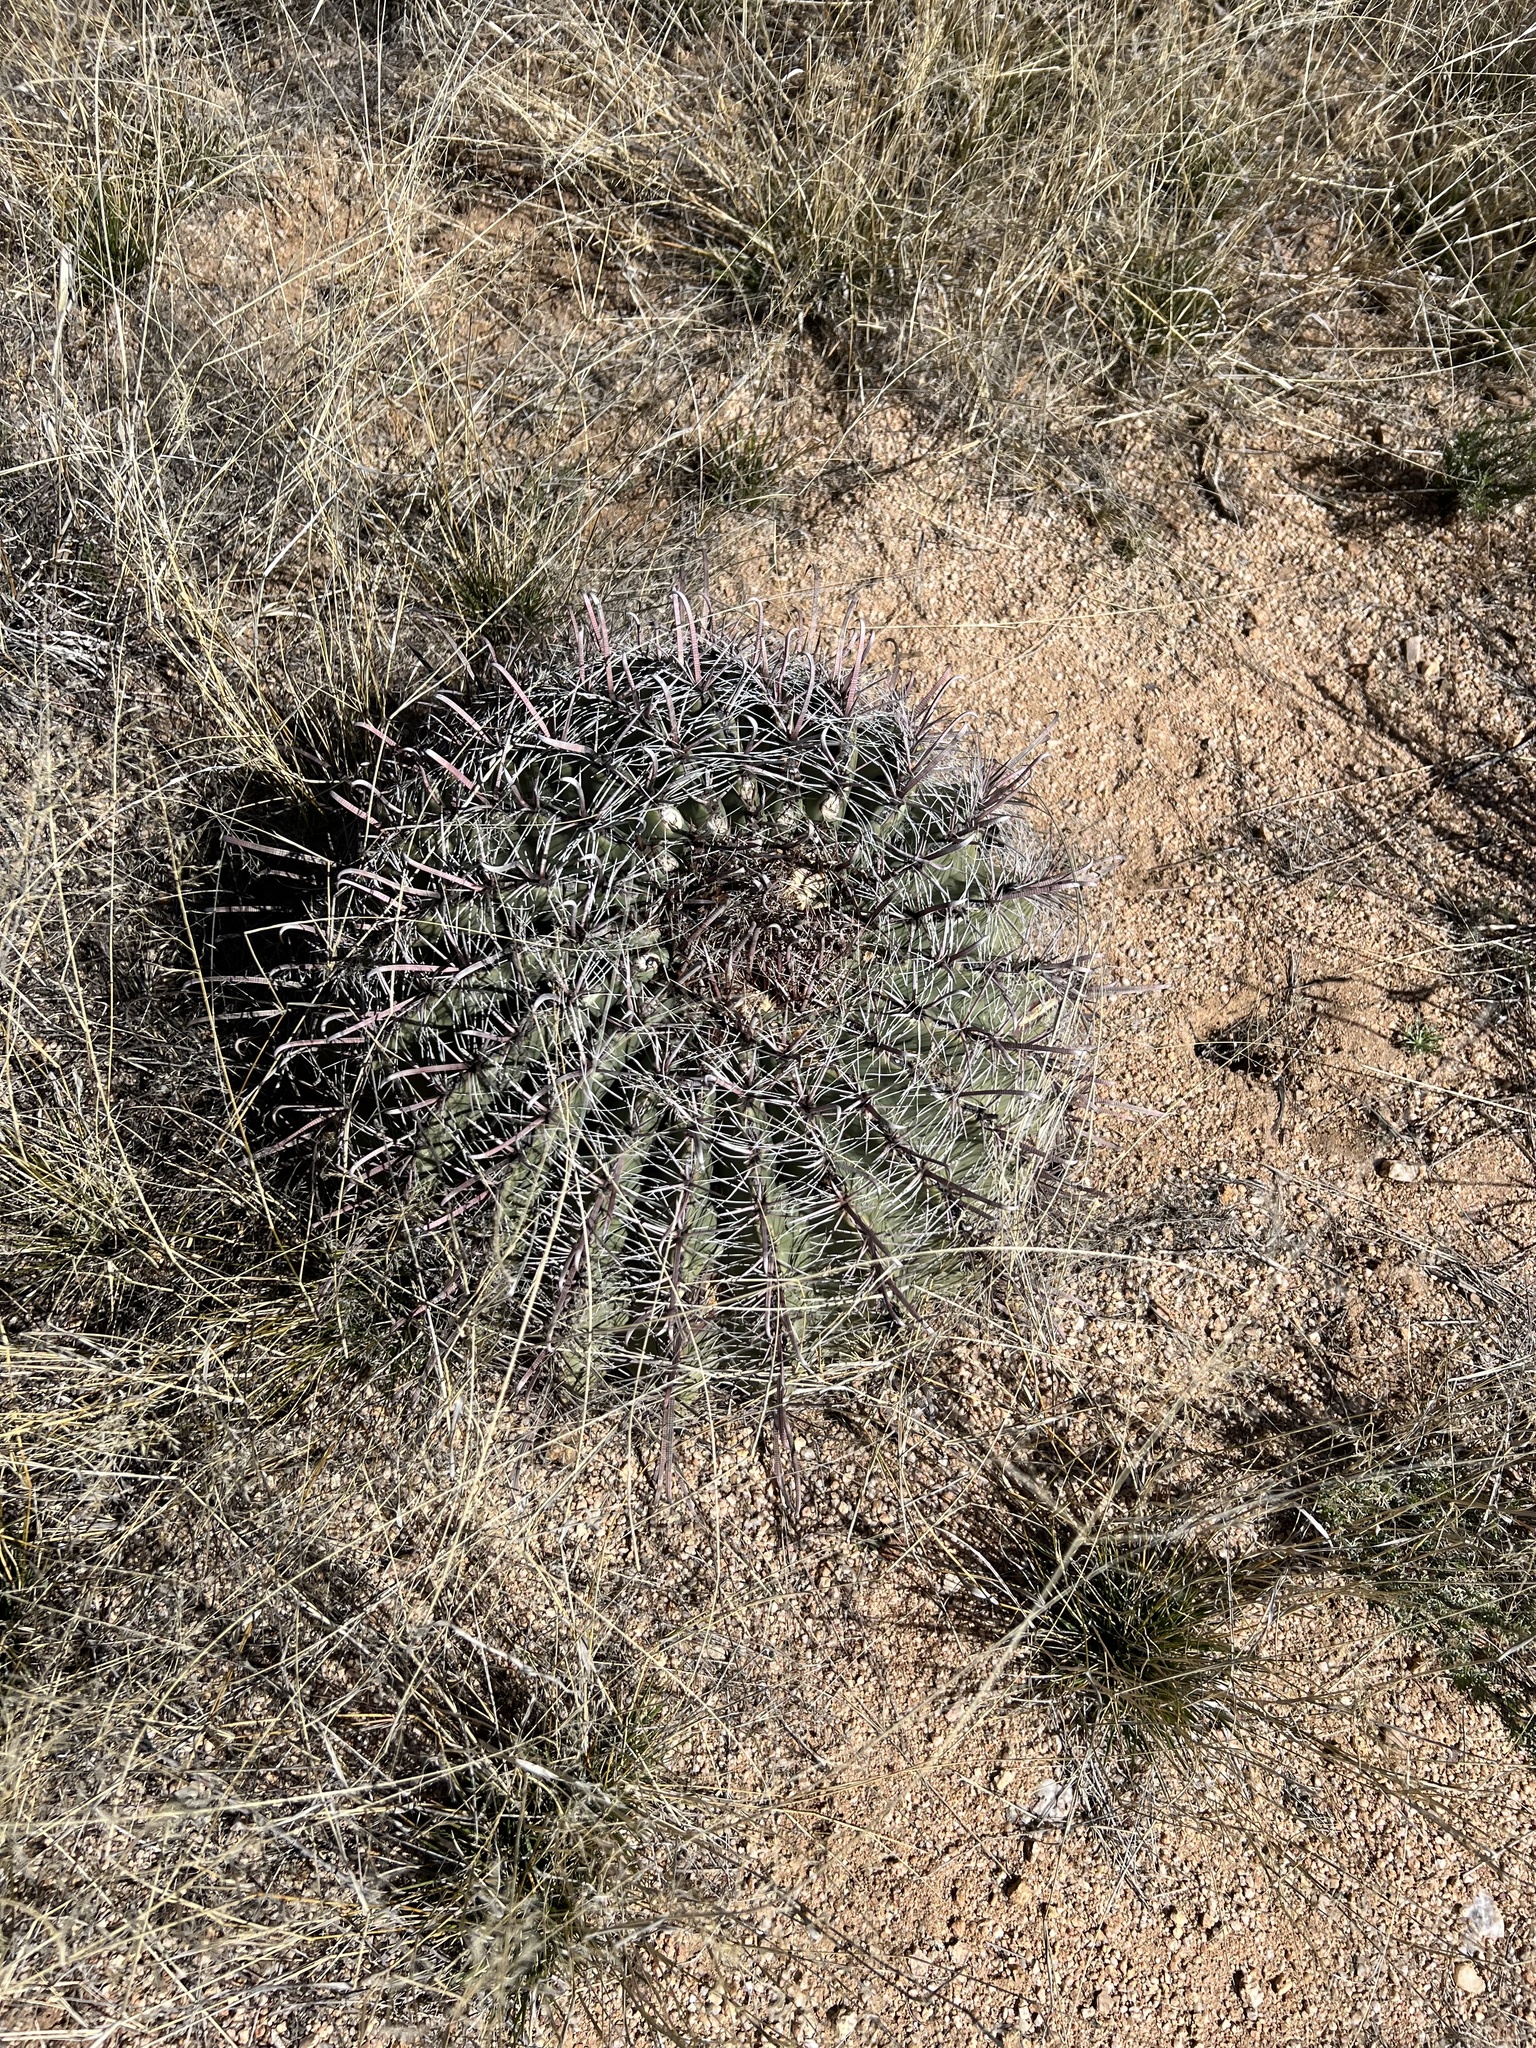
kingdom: Plantae
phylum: Tracheophyta
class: Magnoliopsida
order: Caryophyllales
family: Cactaceae
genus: Ferocactus
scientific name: Ferocactus wislizeni
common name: Candy barrel cactus
